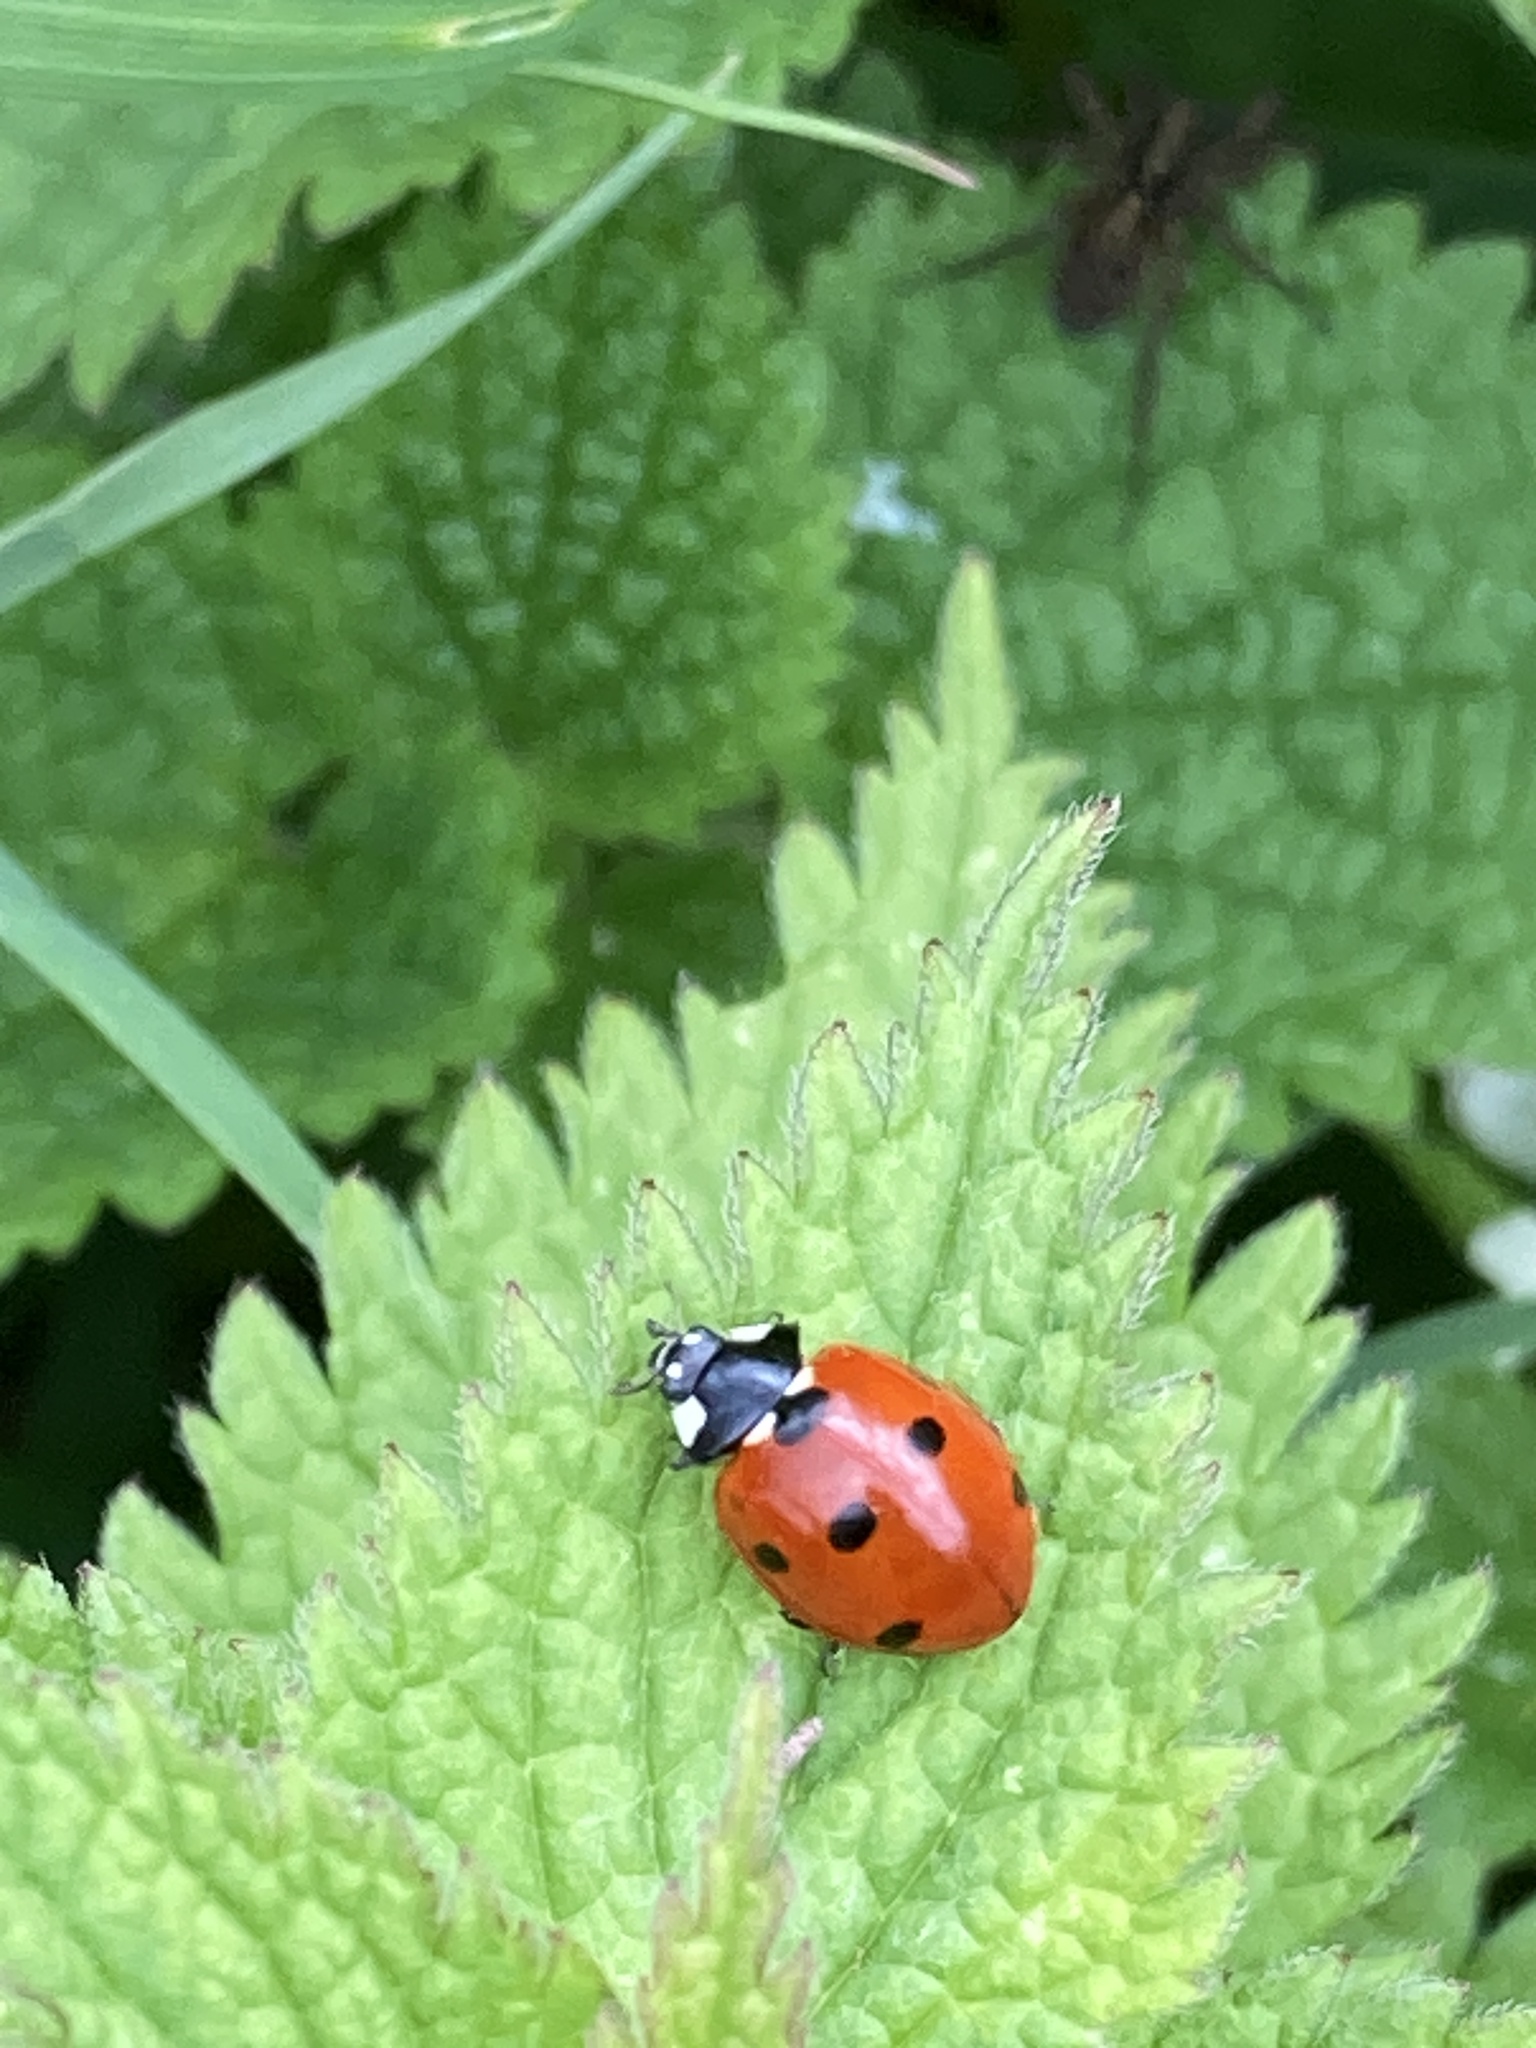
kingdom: Animalia
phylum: Arthropoda
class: Insecta
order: Coleoptera
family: Coccinellidae
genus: Coccinella
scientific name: Coccinella septempunctata
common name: Sevenspotted lady beetle
